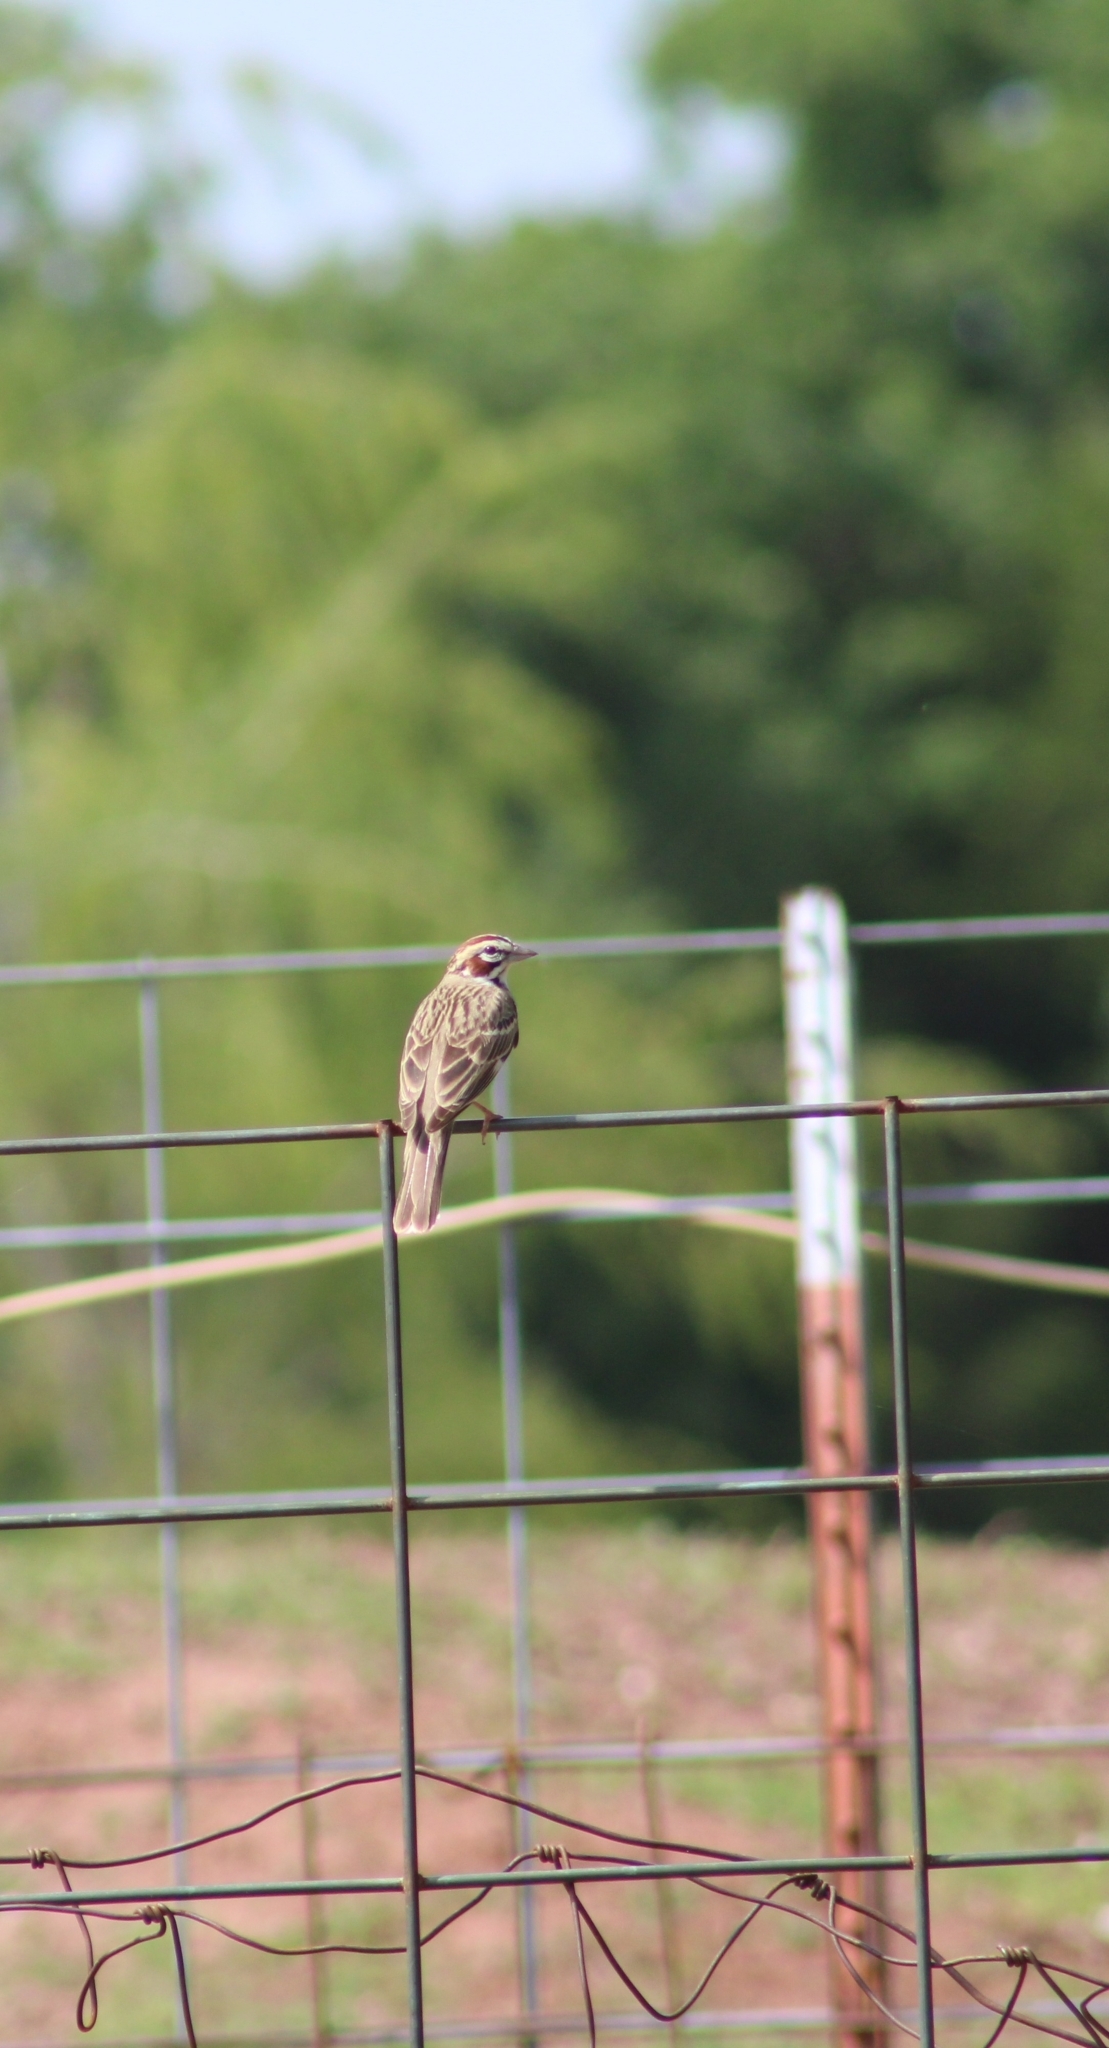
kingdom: Animalia
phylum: Chordata
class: Aves
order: Passeriformes
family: Passerellidae
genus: Chondestes
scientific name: Chondestes grammacus
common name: Lark sparrow
